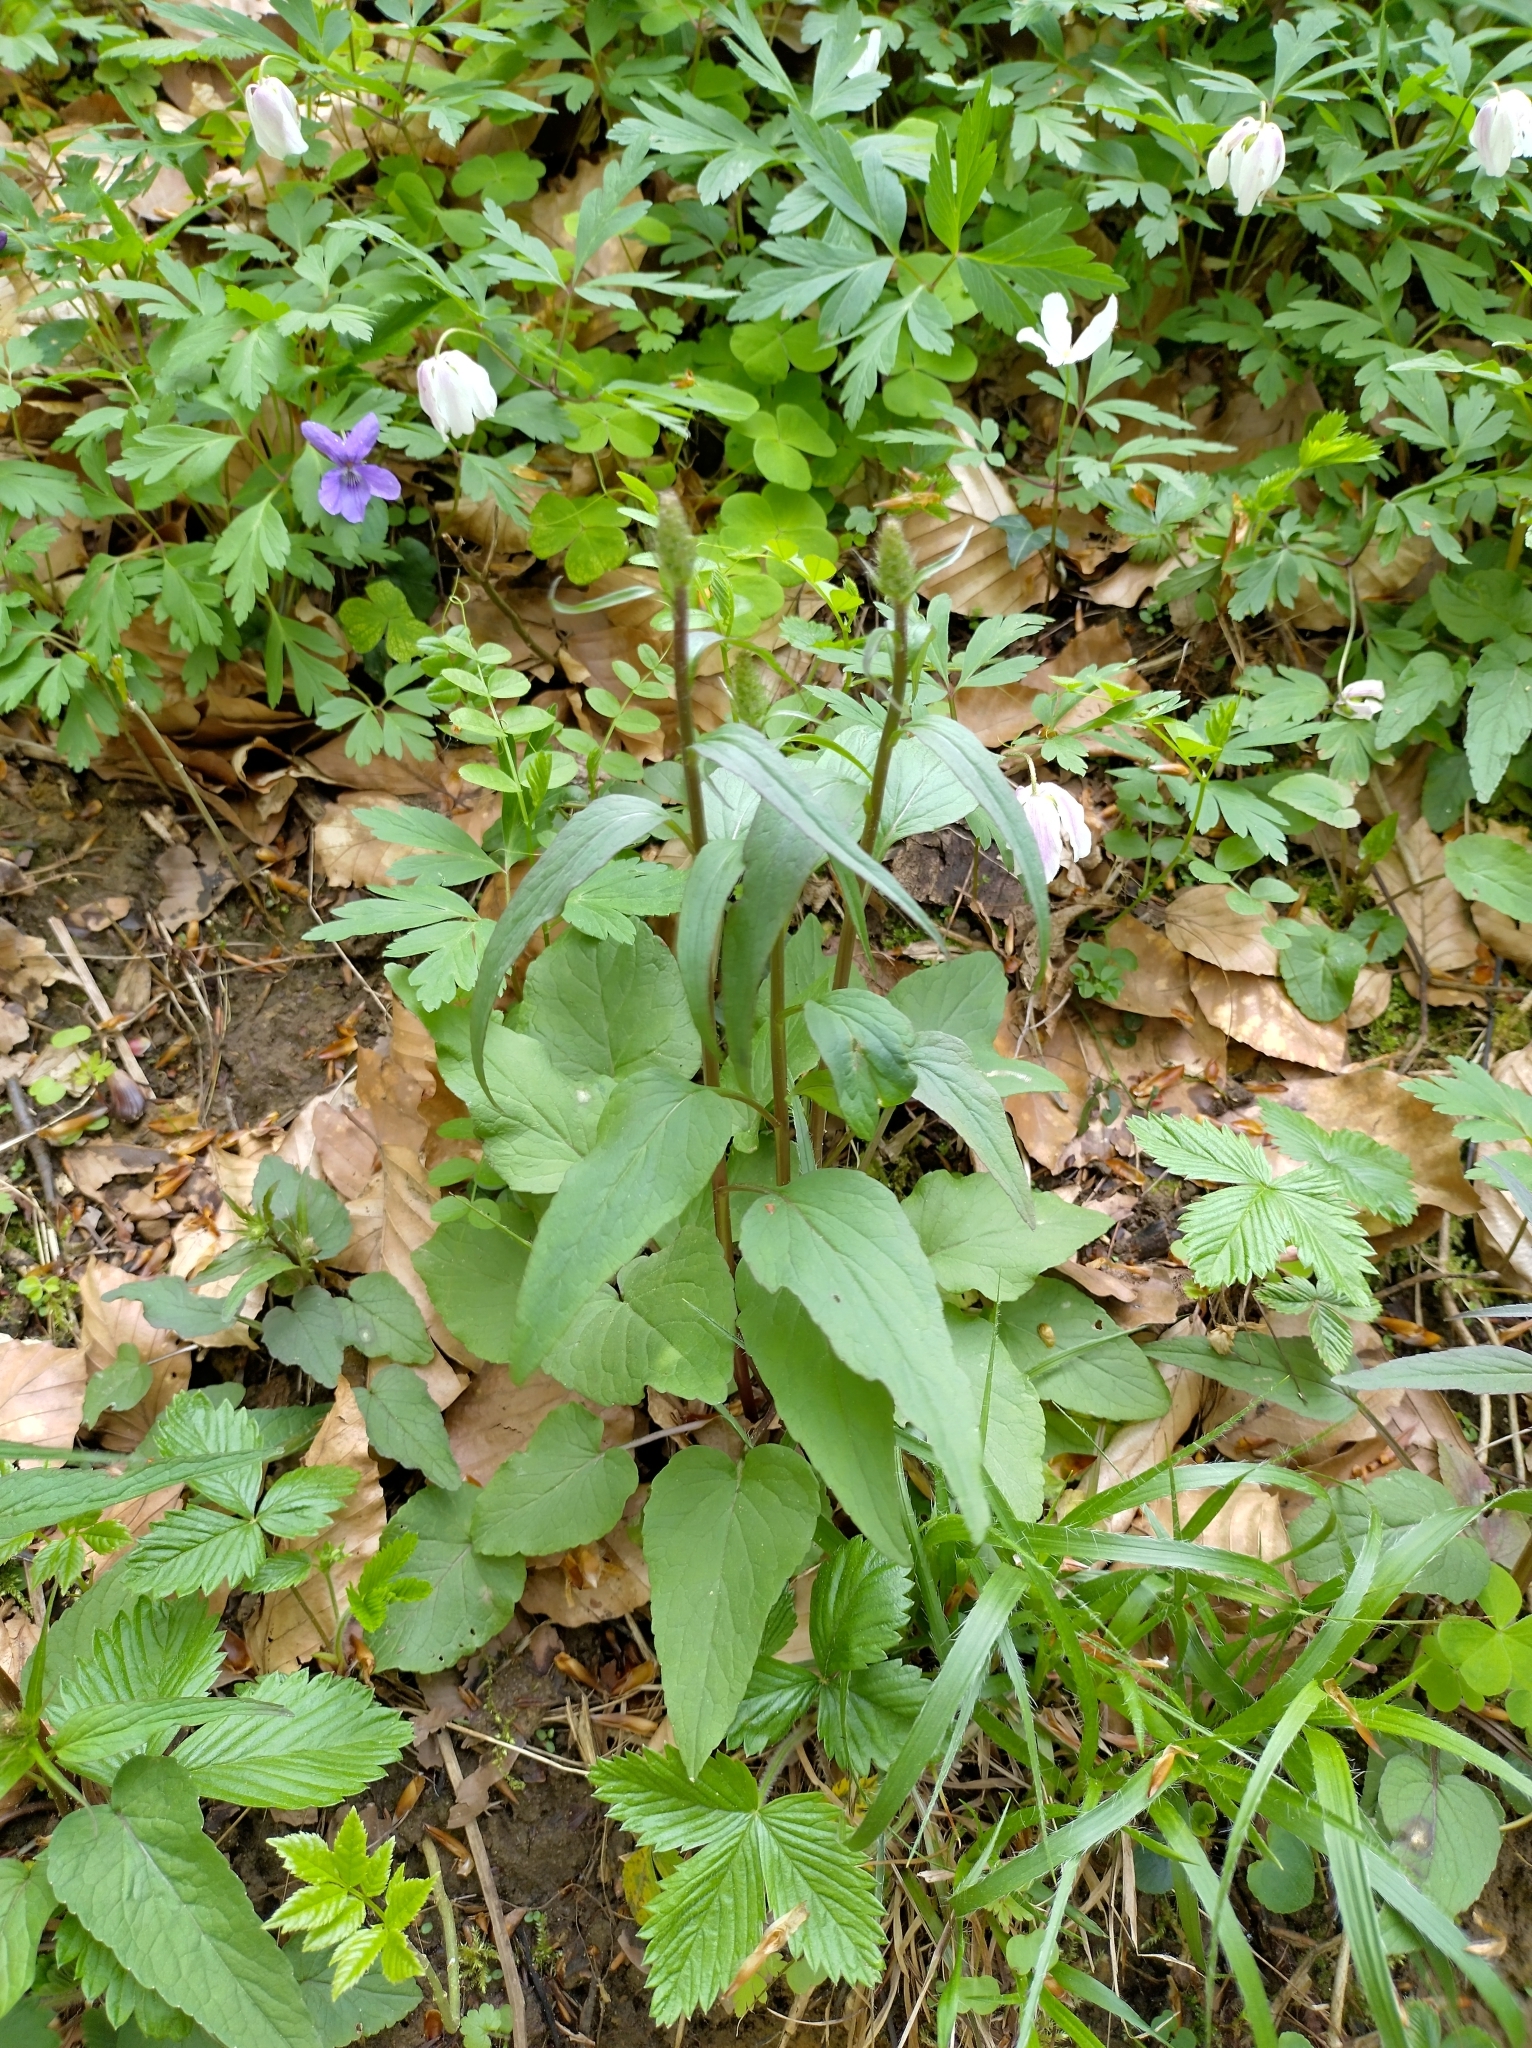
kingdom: Plantae
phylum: Tracheophyta
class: Magnoliopsida
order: Asterales
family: Campanulaceae
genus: Phyteuma
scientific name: Phyteuma nigrum
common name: Black rampion
